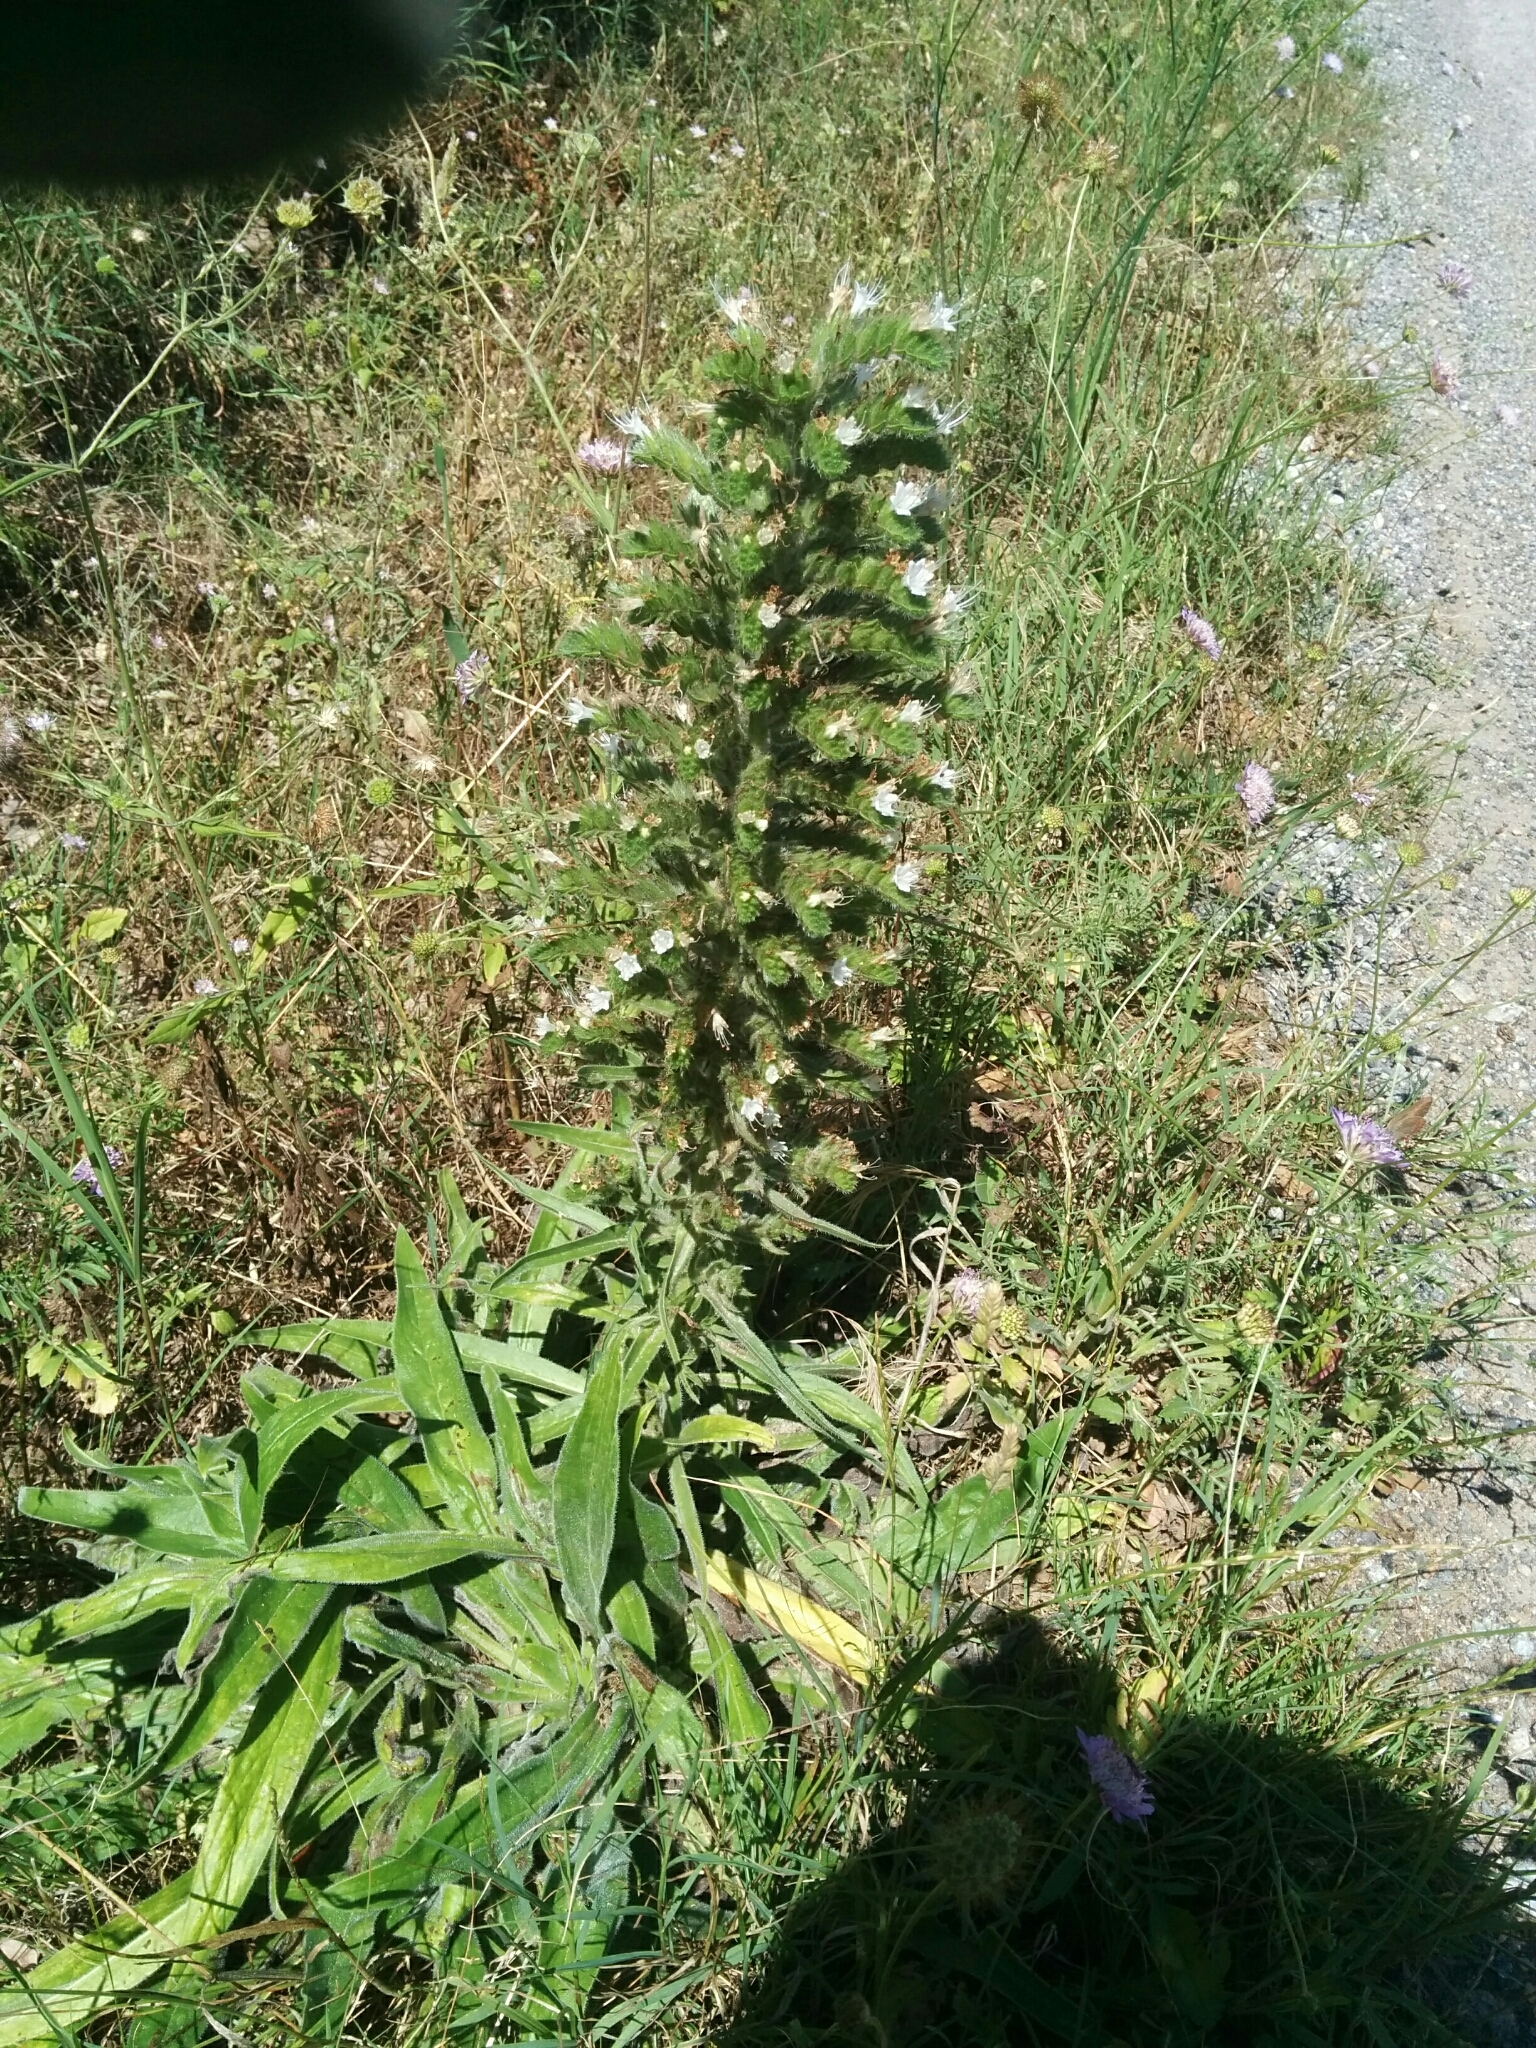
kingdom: Plantae
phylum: Tracheophyta
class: Magnoliopsida
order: Boraginales
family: Boraginaceae
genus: Echium
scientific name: Echium italicum
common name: Italian viper's bugloss
